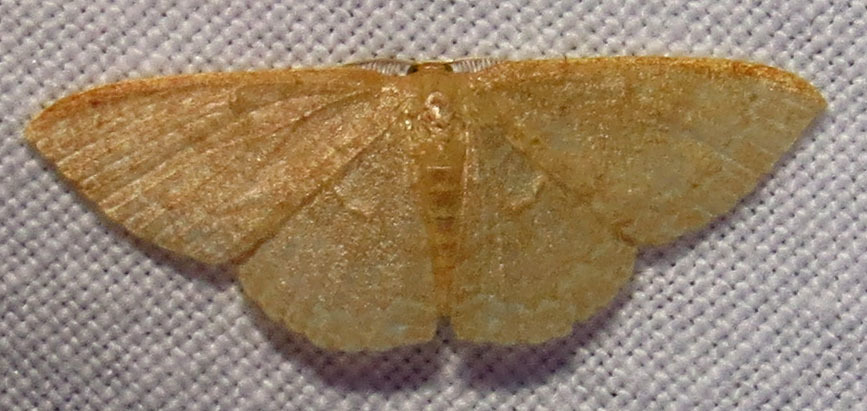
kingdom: Animalia
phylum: Arthropoda
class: Insecta
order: Lepidoptera
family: Geometridae
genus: Pleuroprucha
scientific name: Pleuroprucha insulsaria
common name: Common tan wave
